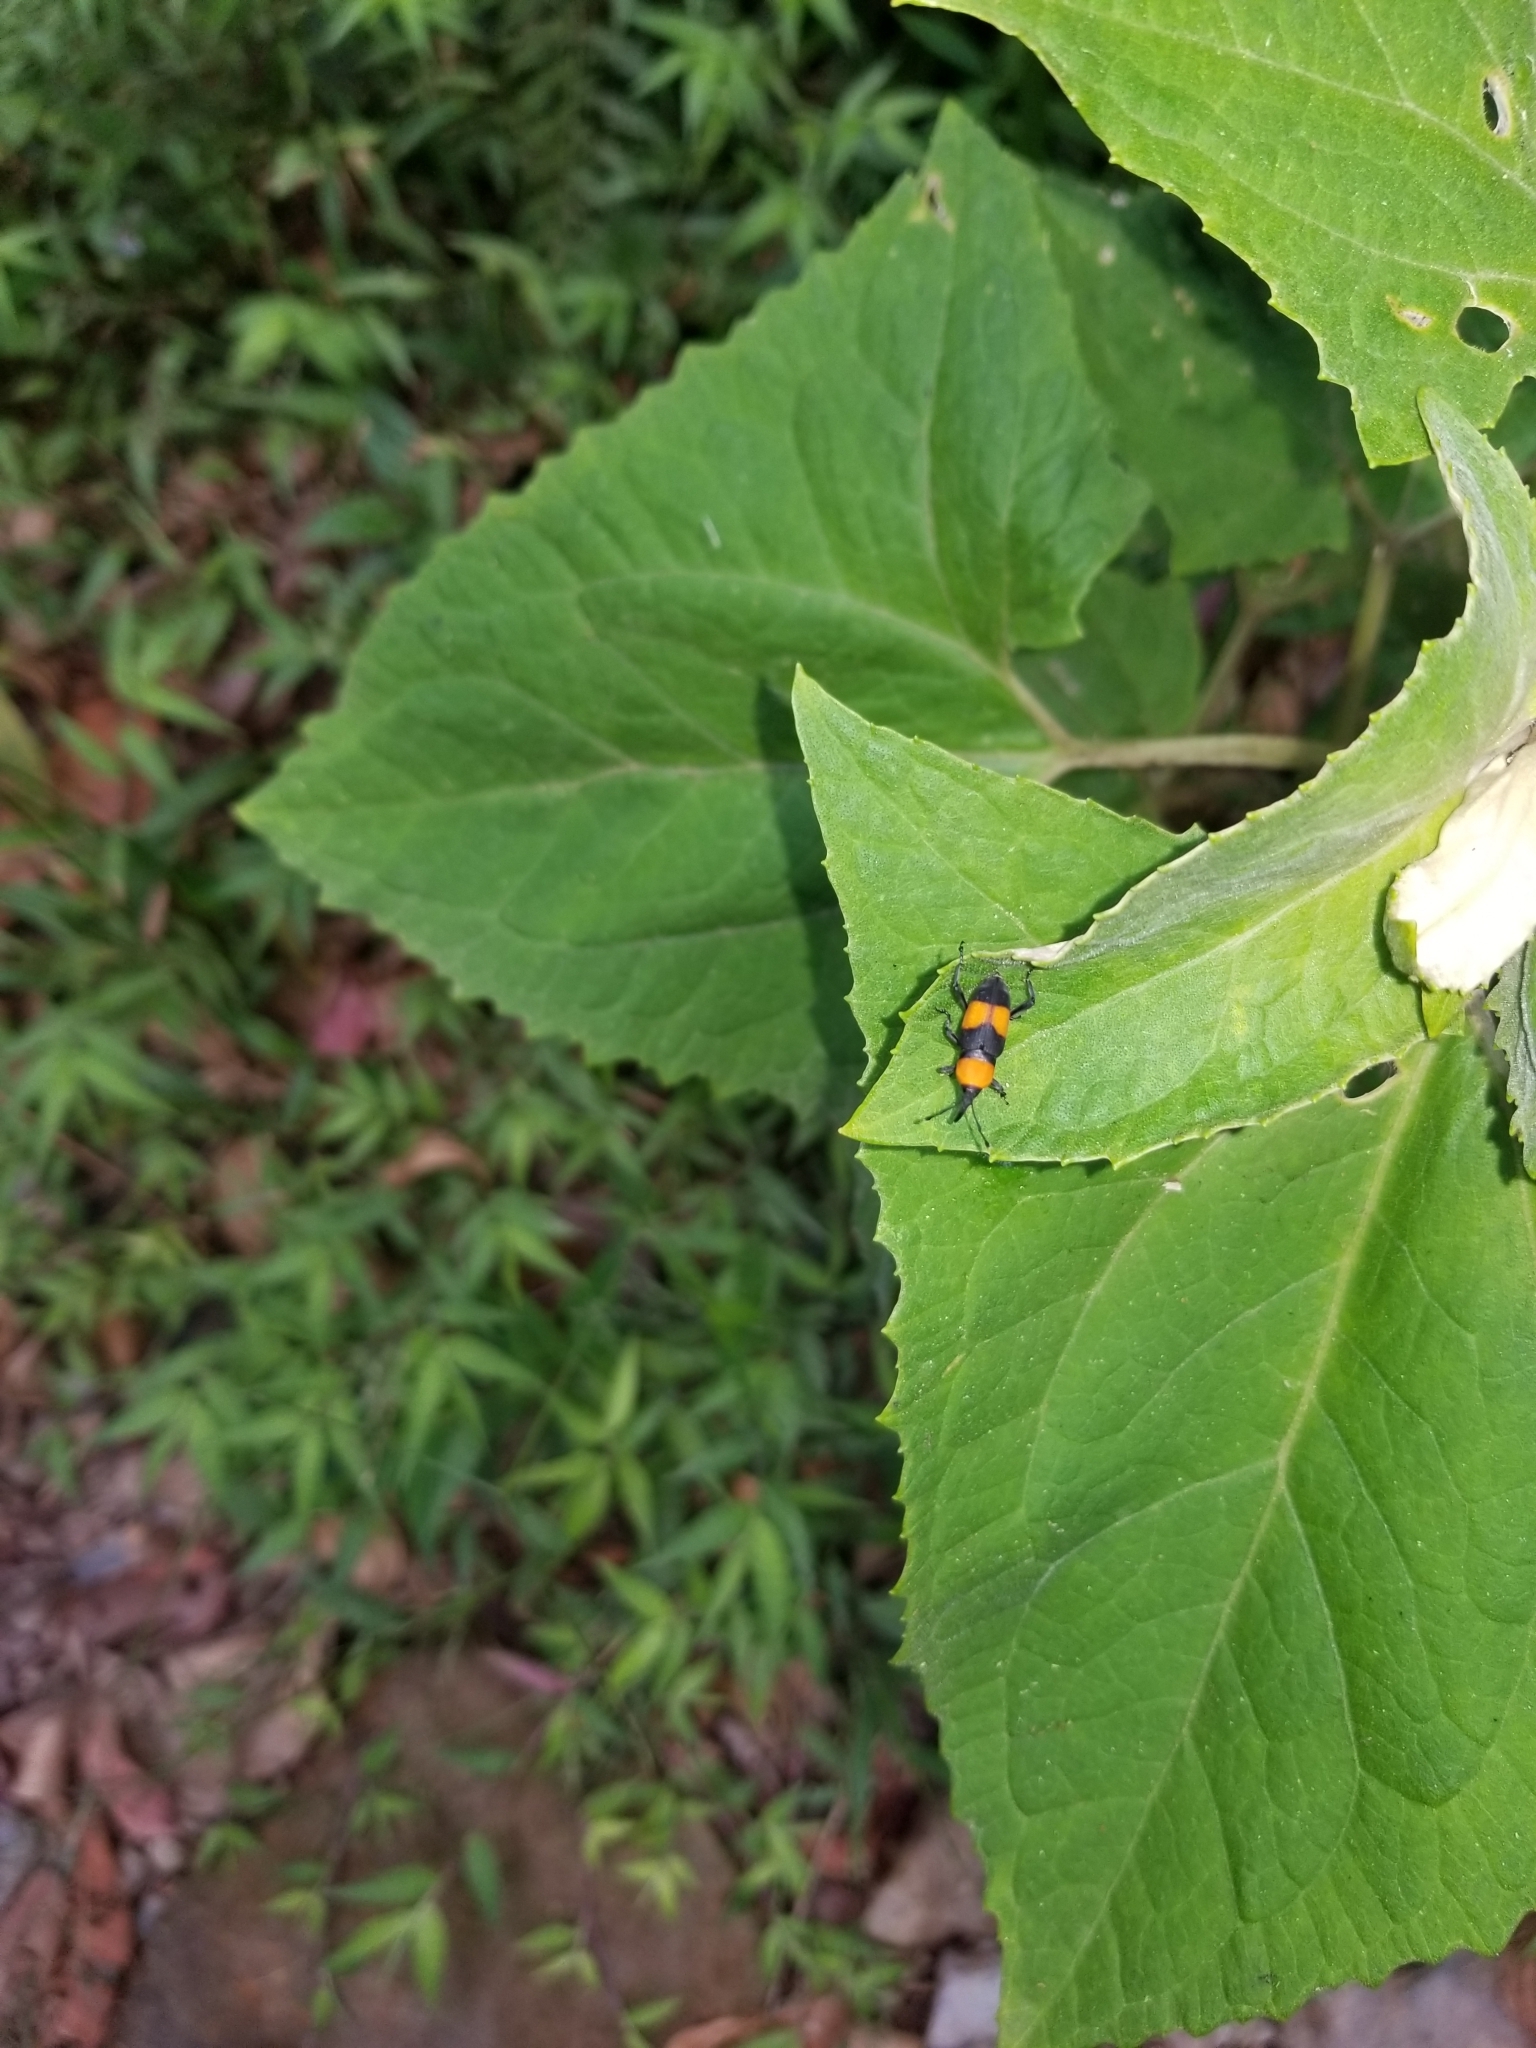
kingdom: Animalia
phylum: Arthropoda
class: Insecta
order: Coleoptera
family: Dryophthoridae
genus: Rhodobaenus
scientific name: Rhodobaenus augustinus
